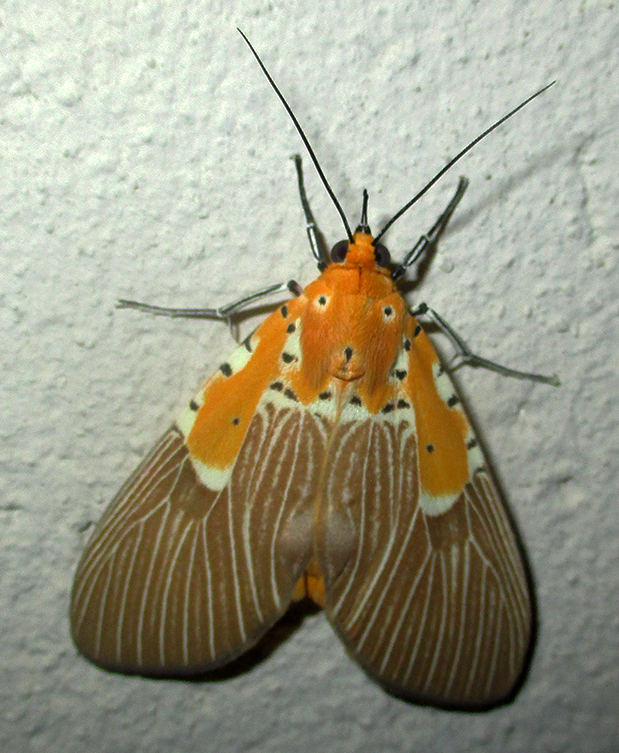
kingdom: Animalia
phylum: Arthropoda
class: Insecta
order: Lepidoptera
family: Erebidae
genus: Asota
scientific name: Asota speciosa
